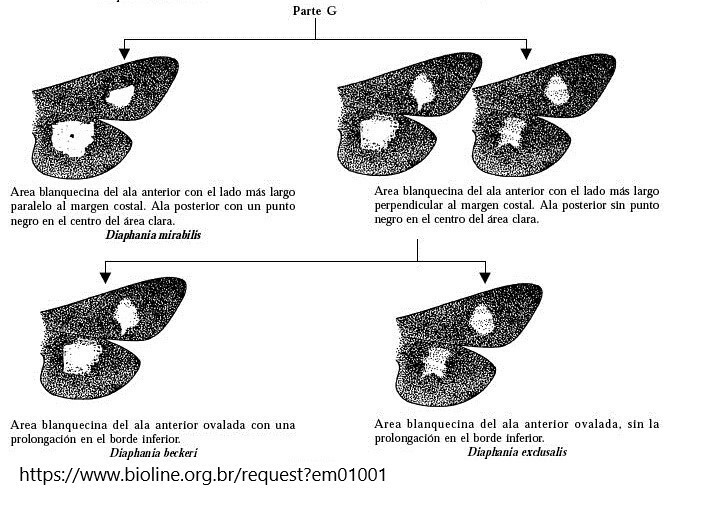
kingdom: Animalia
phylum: Arthropoda
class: Insecta
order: Lepidoptera
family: Crambidae
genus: Diaphania
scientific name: Diaphania beckeri
